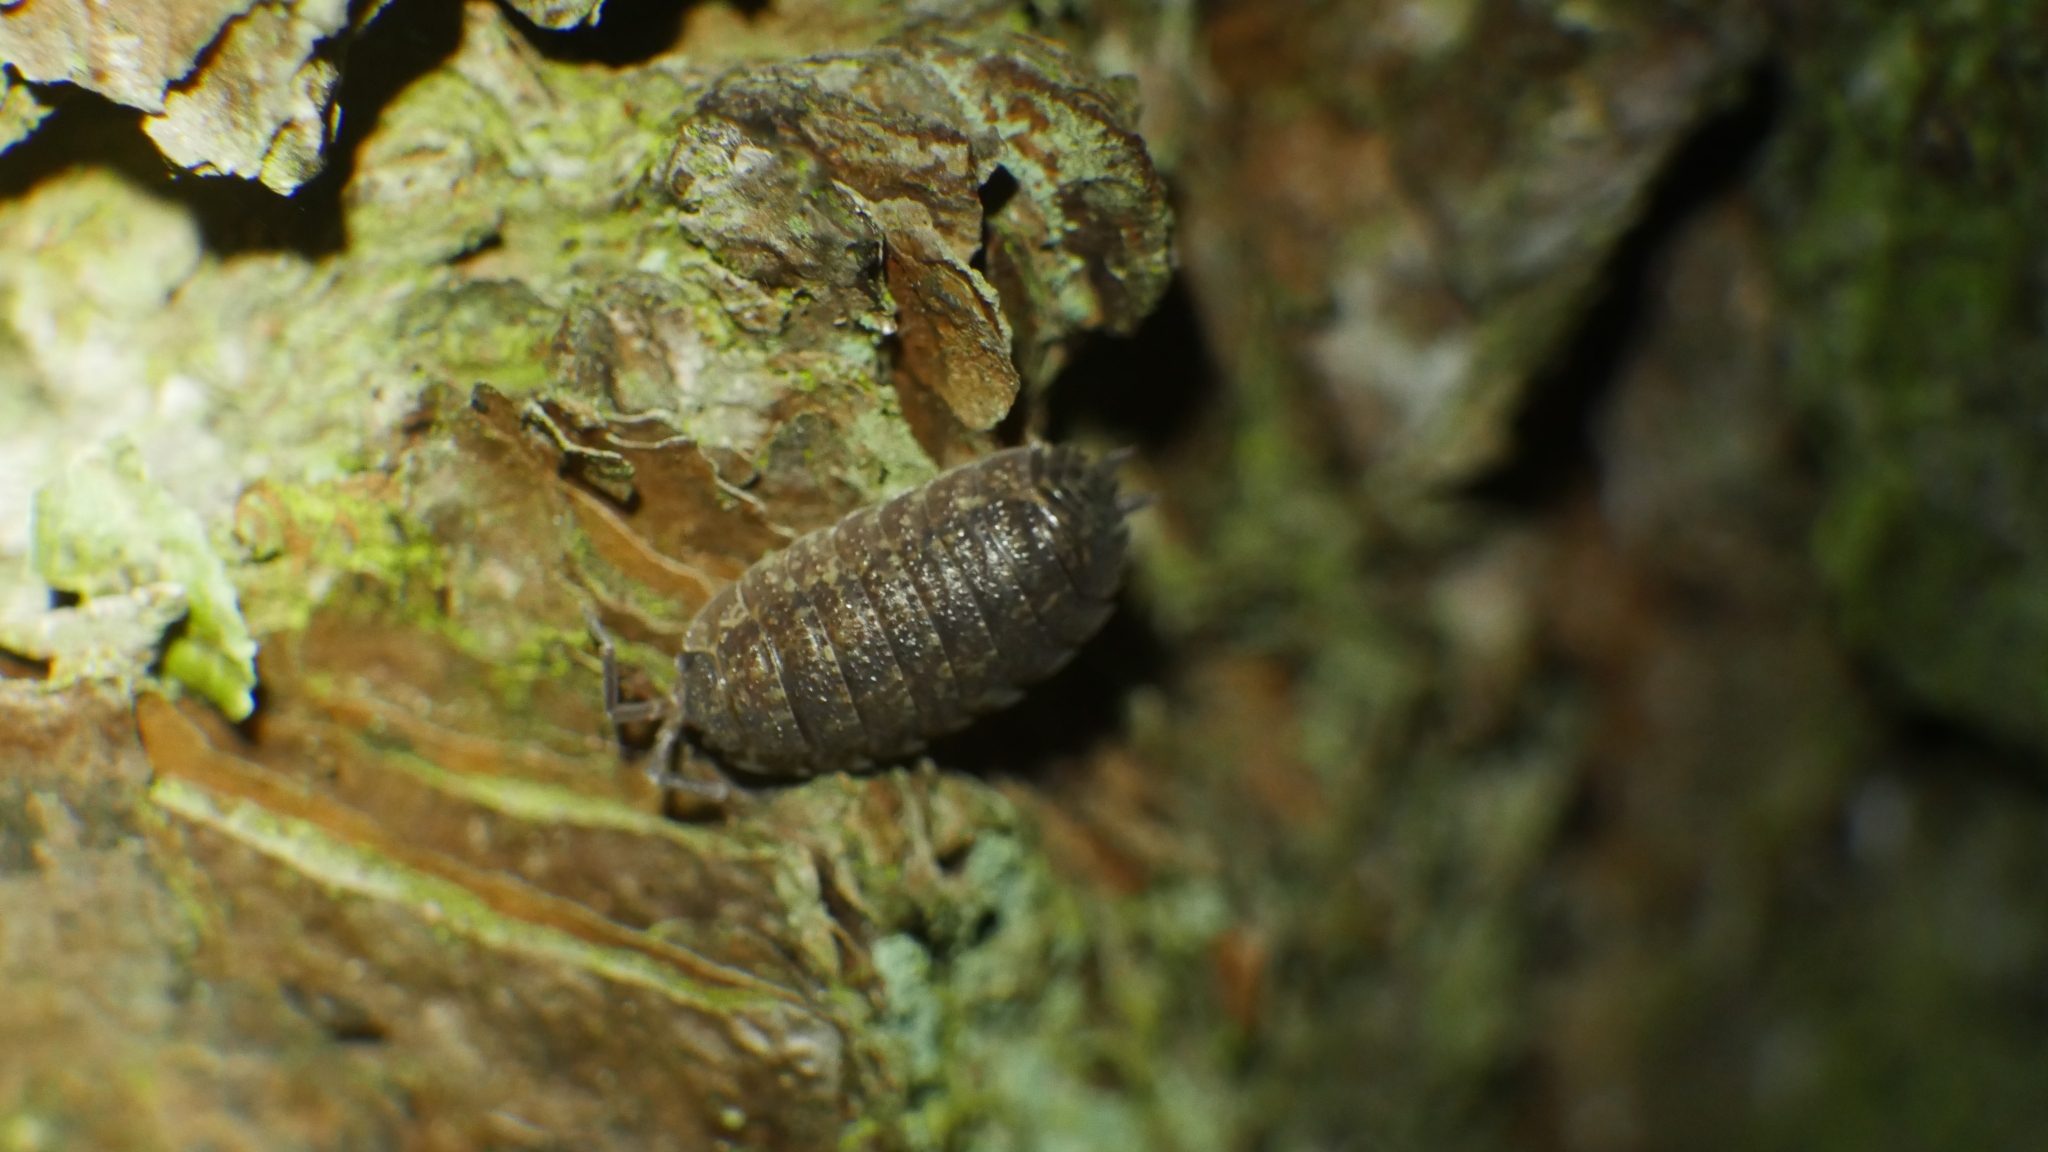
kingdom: Animalia
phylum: Arthropoda
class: Malacostraca
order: Isopoda
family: Porcellionidae
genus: Porcellio
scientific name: Porcellio scaber
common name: Common rough woodlouse
